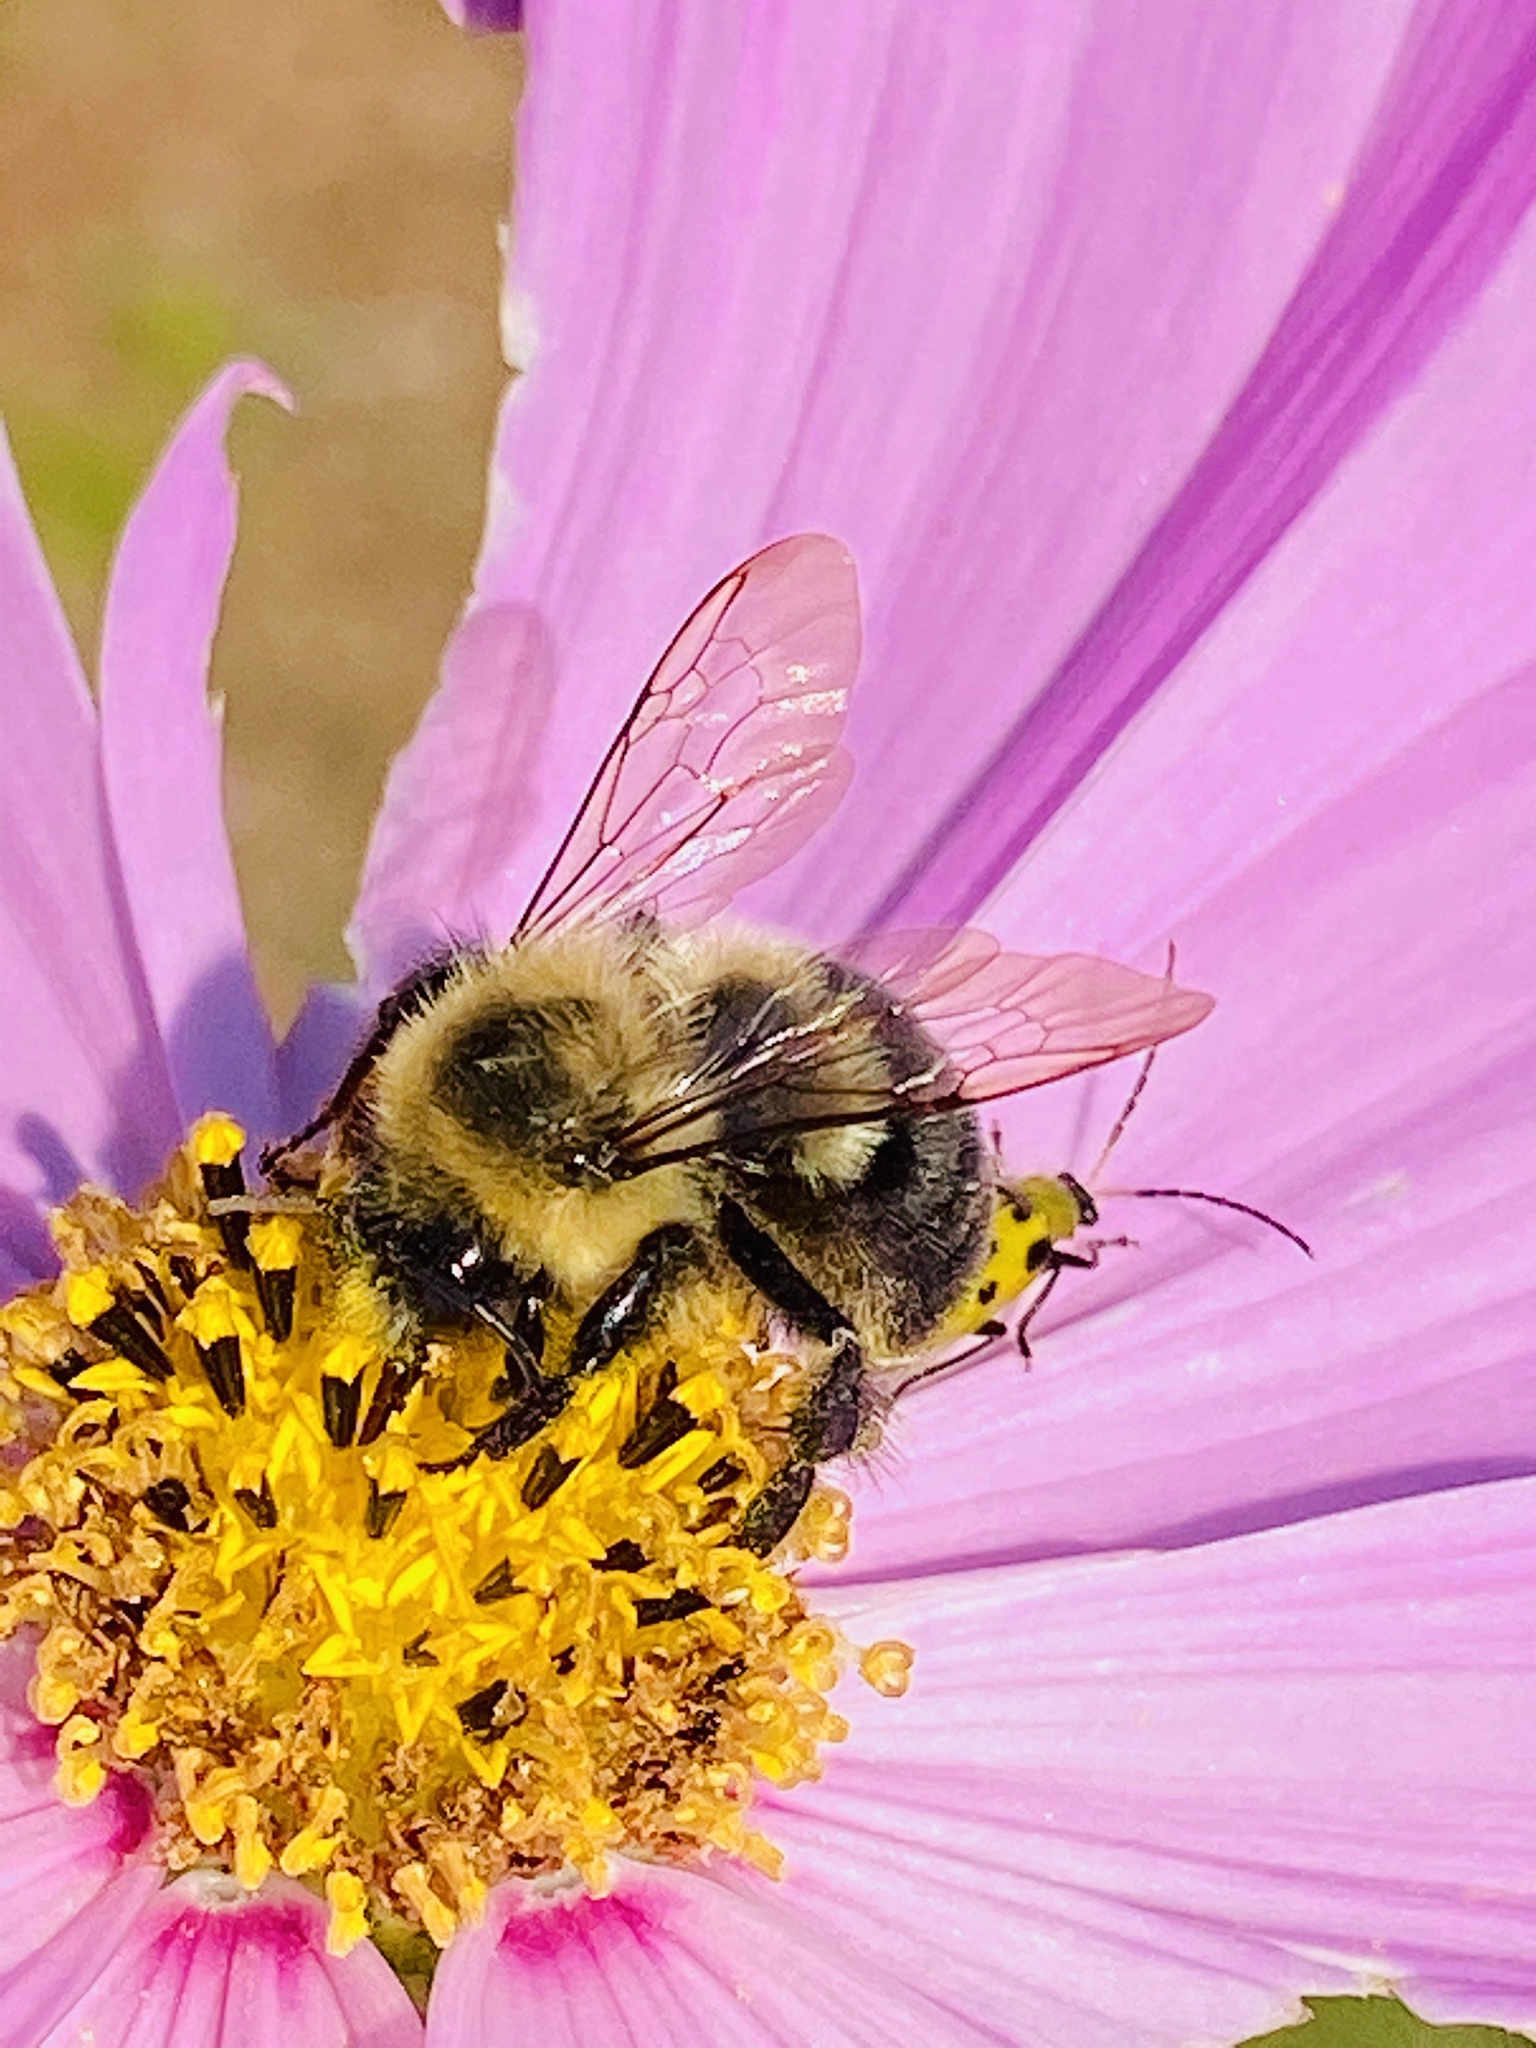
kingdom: Animalia
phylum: Arthropoda
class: Insecta
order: Hymenoptera
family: Apidae
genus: Bombus
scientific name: Bombus impatiens
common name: Common eastern bumble bee
